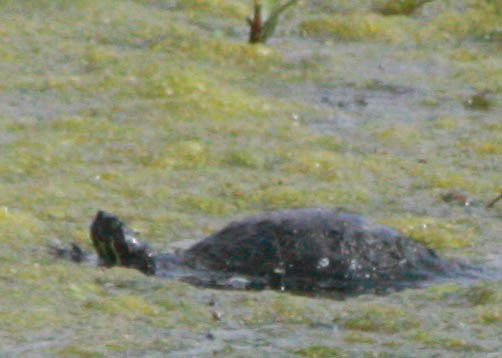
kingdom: Animalia
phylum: Chordata
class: Testudines
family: Emydidae
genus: Trachemys
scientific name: Trachemys scripta
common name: Slider
